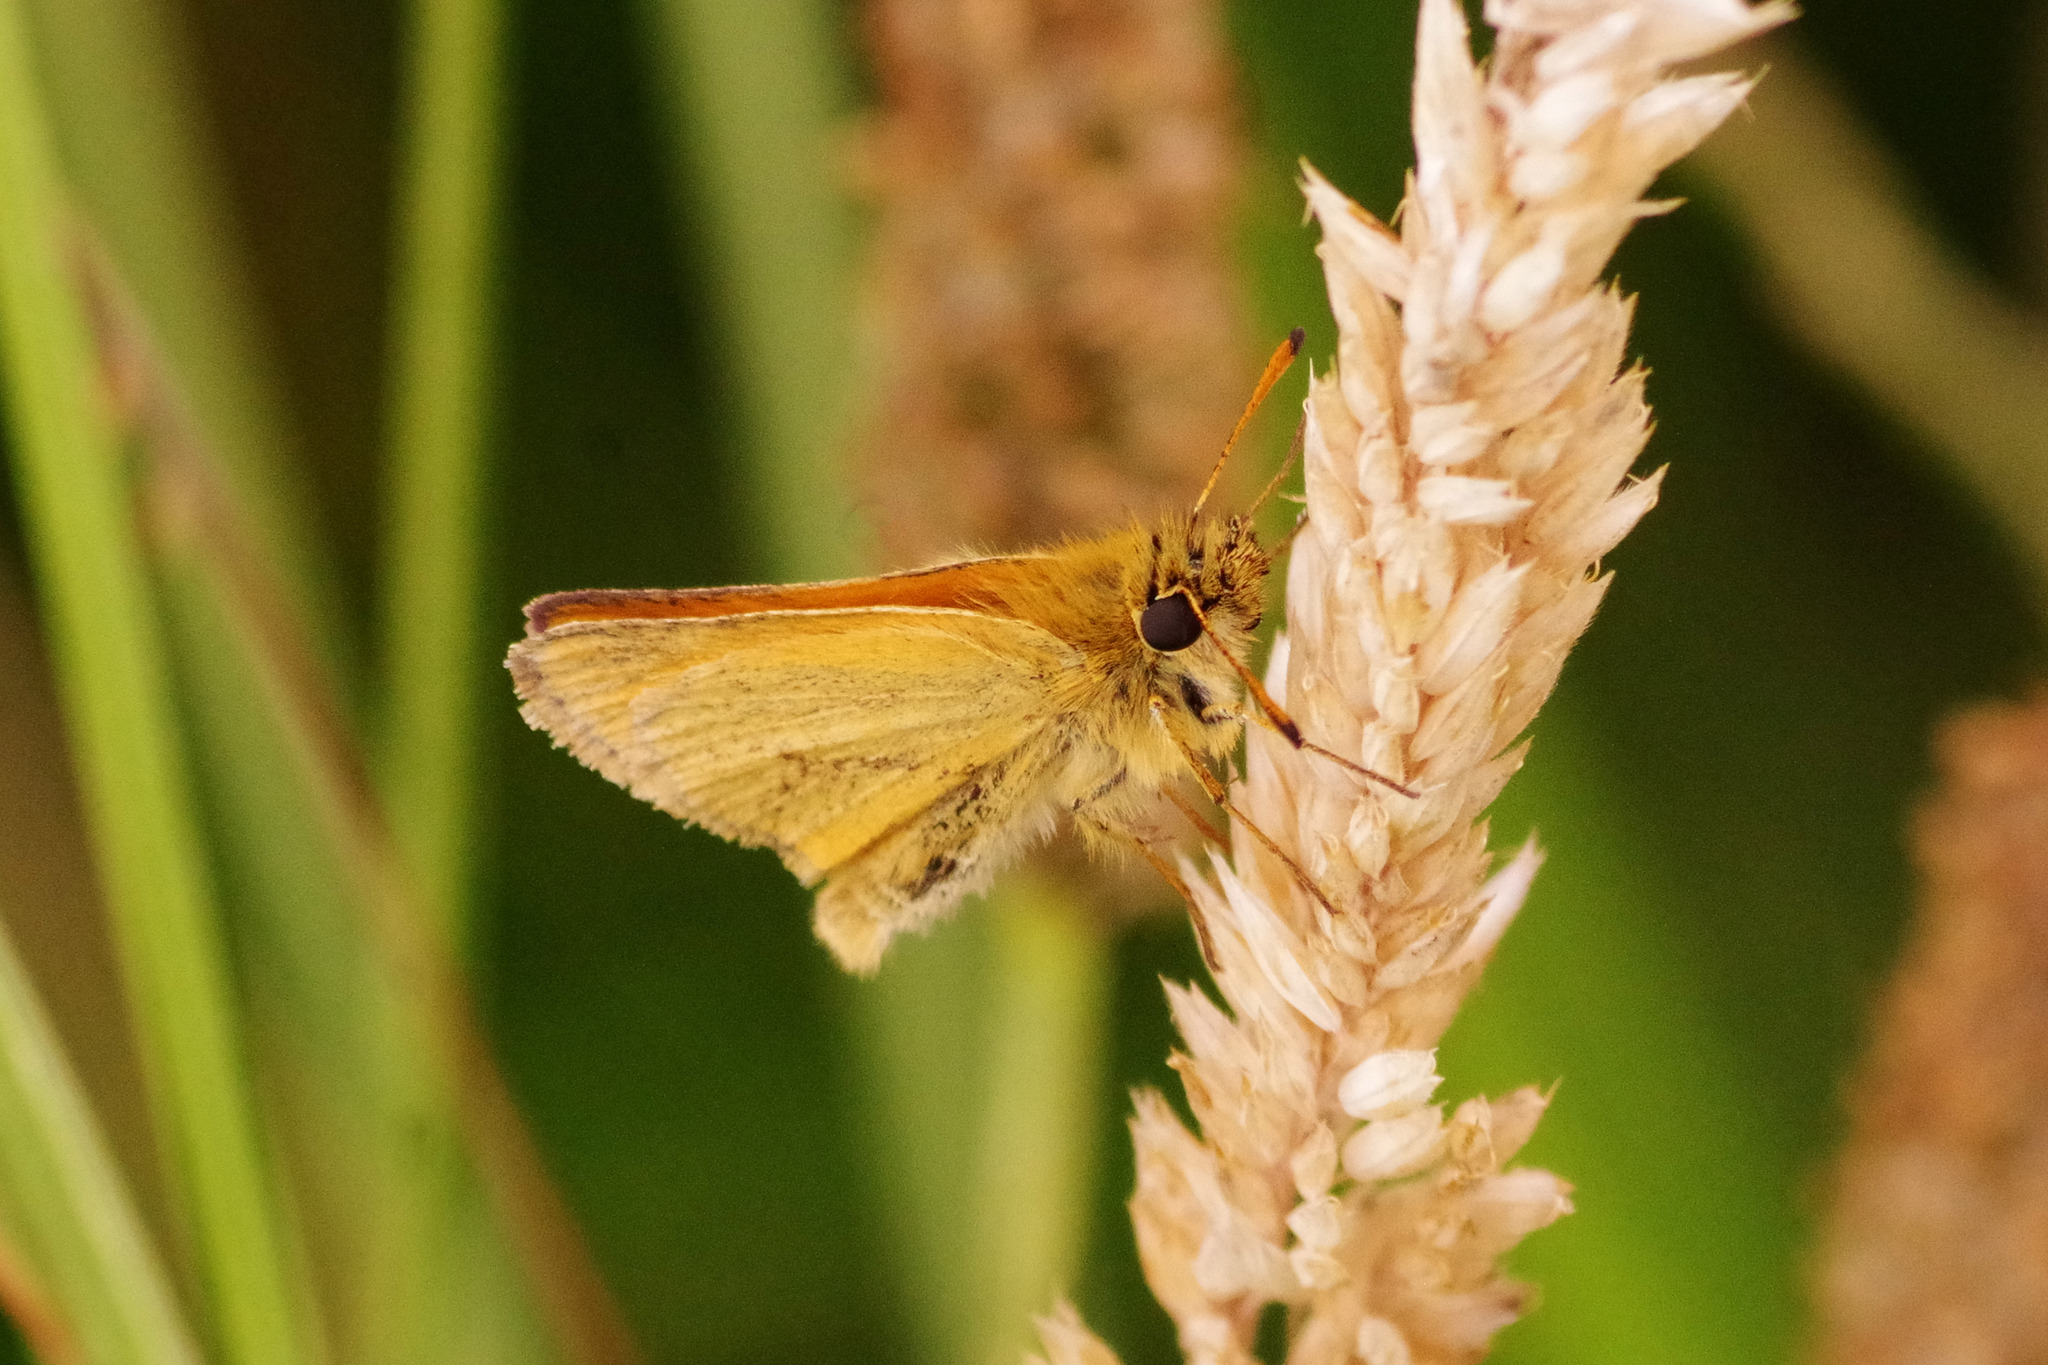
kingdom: Animalia
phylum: Arthropoda
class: Insecta
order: Lepidoptera
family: Hesperiidae
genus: Thymelicus
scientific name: Thymelicus lineola
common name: Essex skipper
